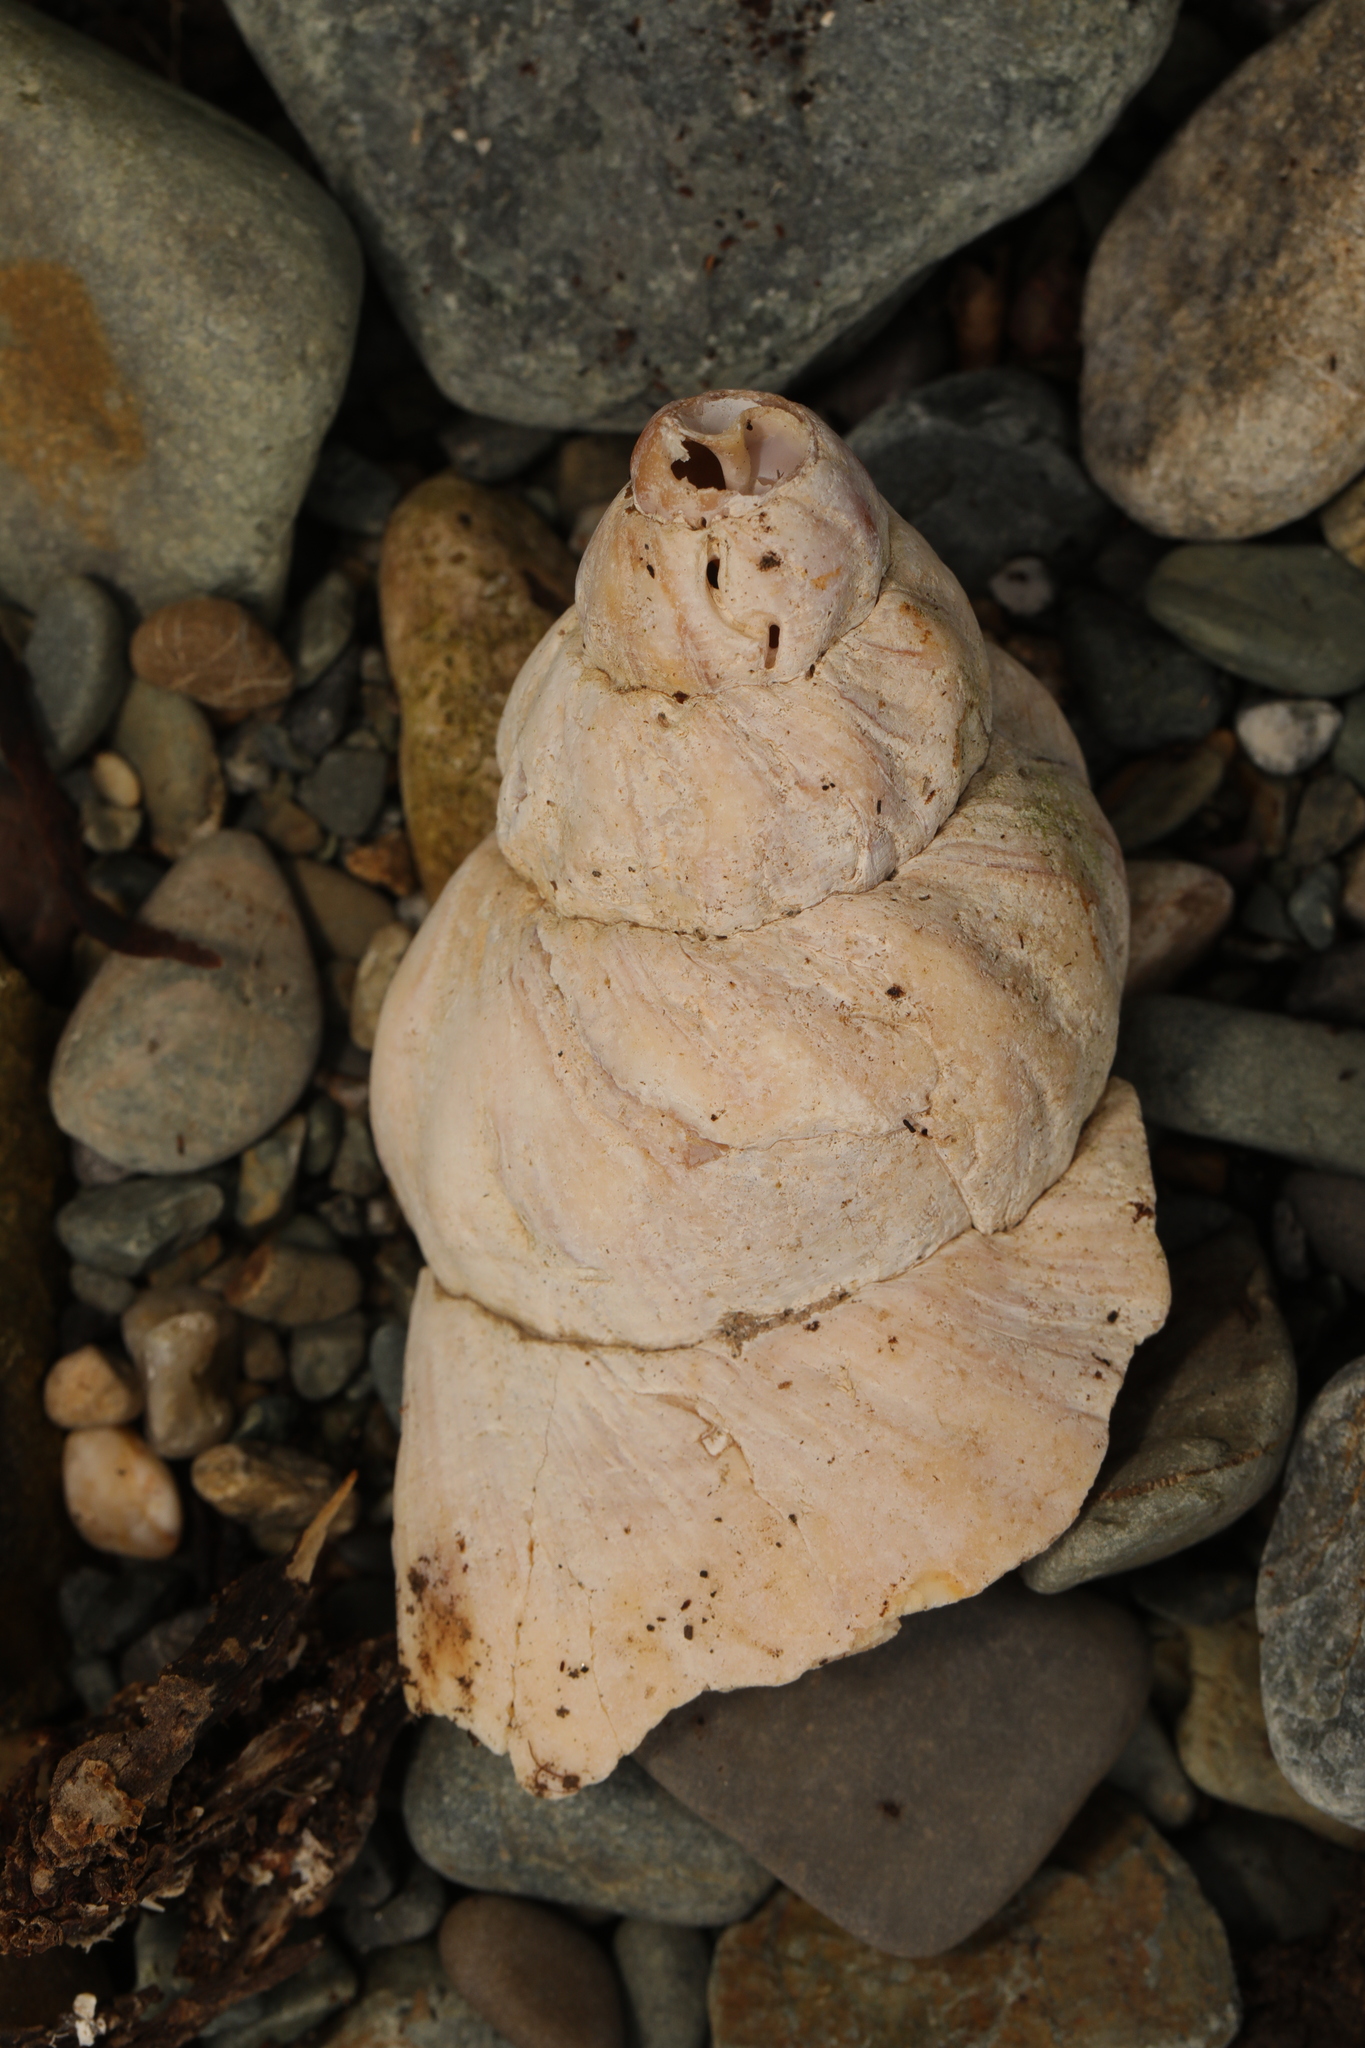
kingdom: Animalia
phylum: Mollusca
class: Gastropoda
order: Neogastropoda
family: Buccinidae
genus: Buccinum
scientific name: Buccinum undatum
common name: Common whelk
